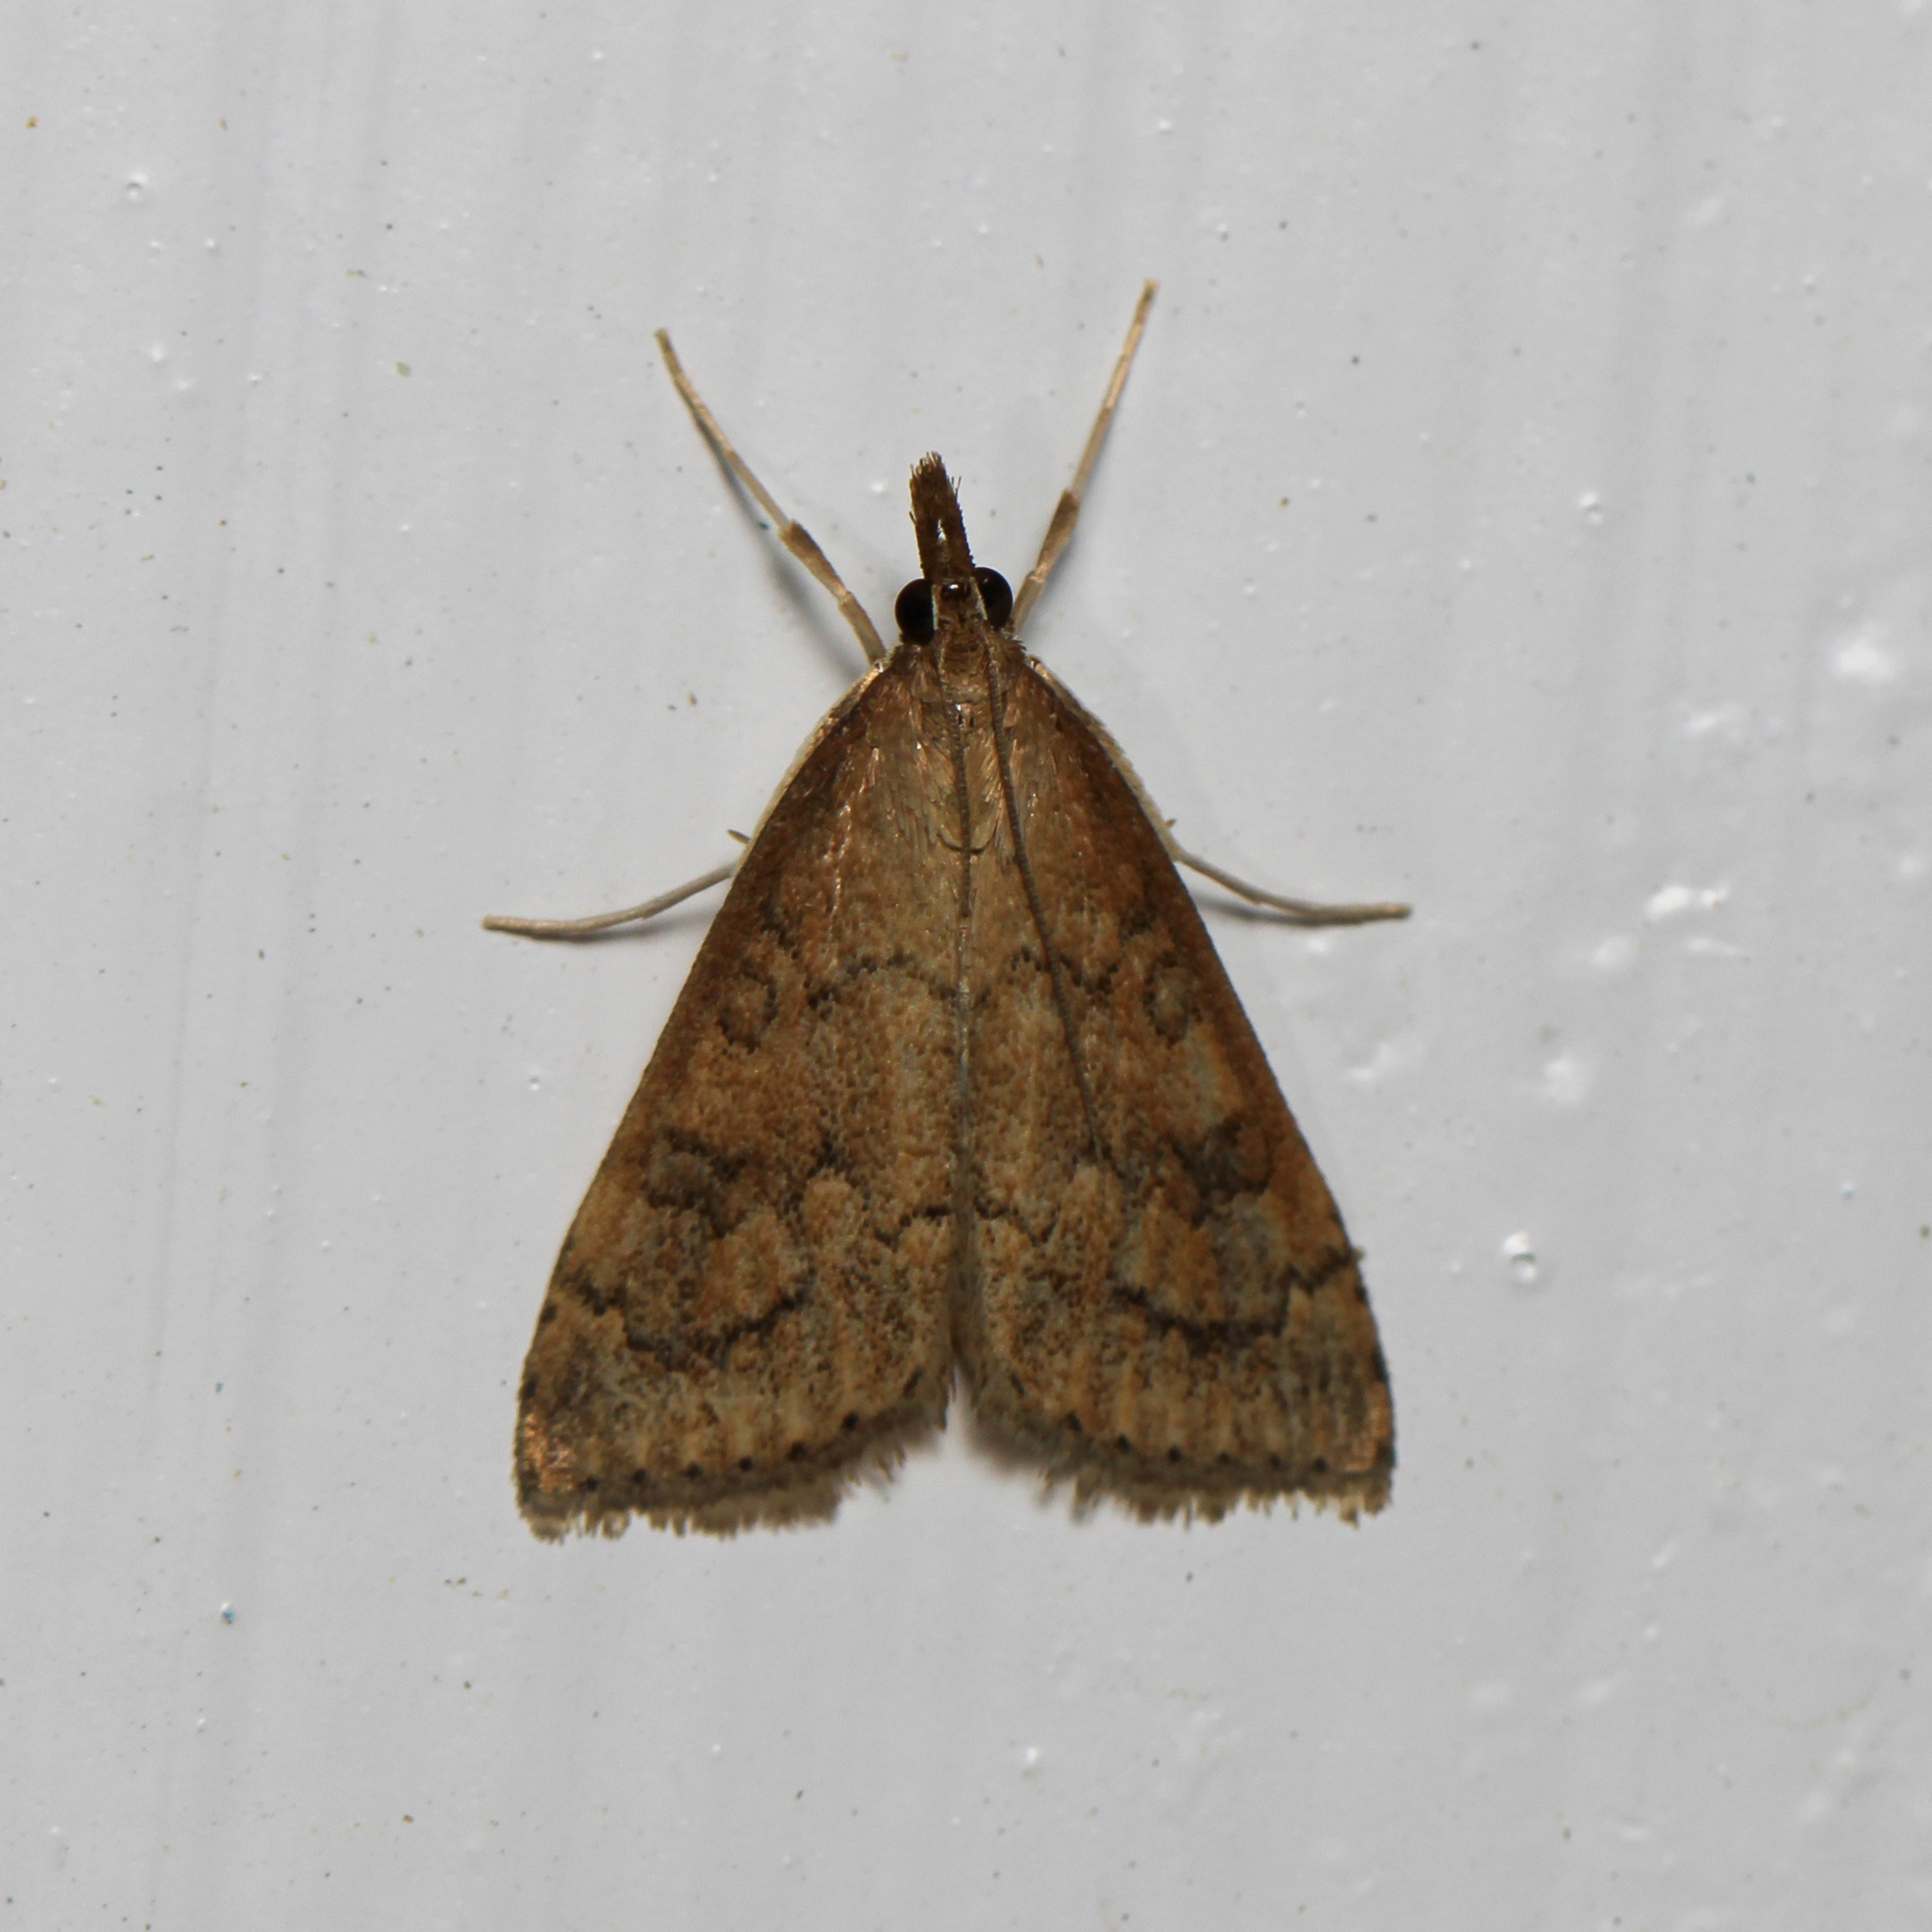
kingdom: Animalia
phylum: Arthropoda
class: Insecta
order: Lepidoptera
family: Crambidae
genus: Udea
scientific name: Udea rubigalis
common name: Celery leaftier moth
